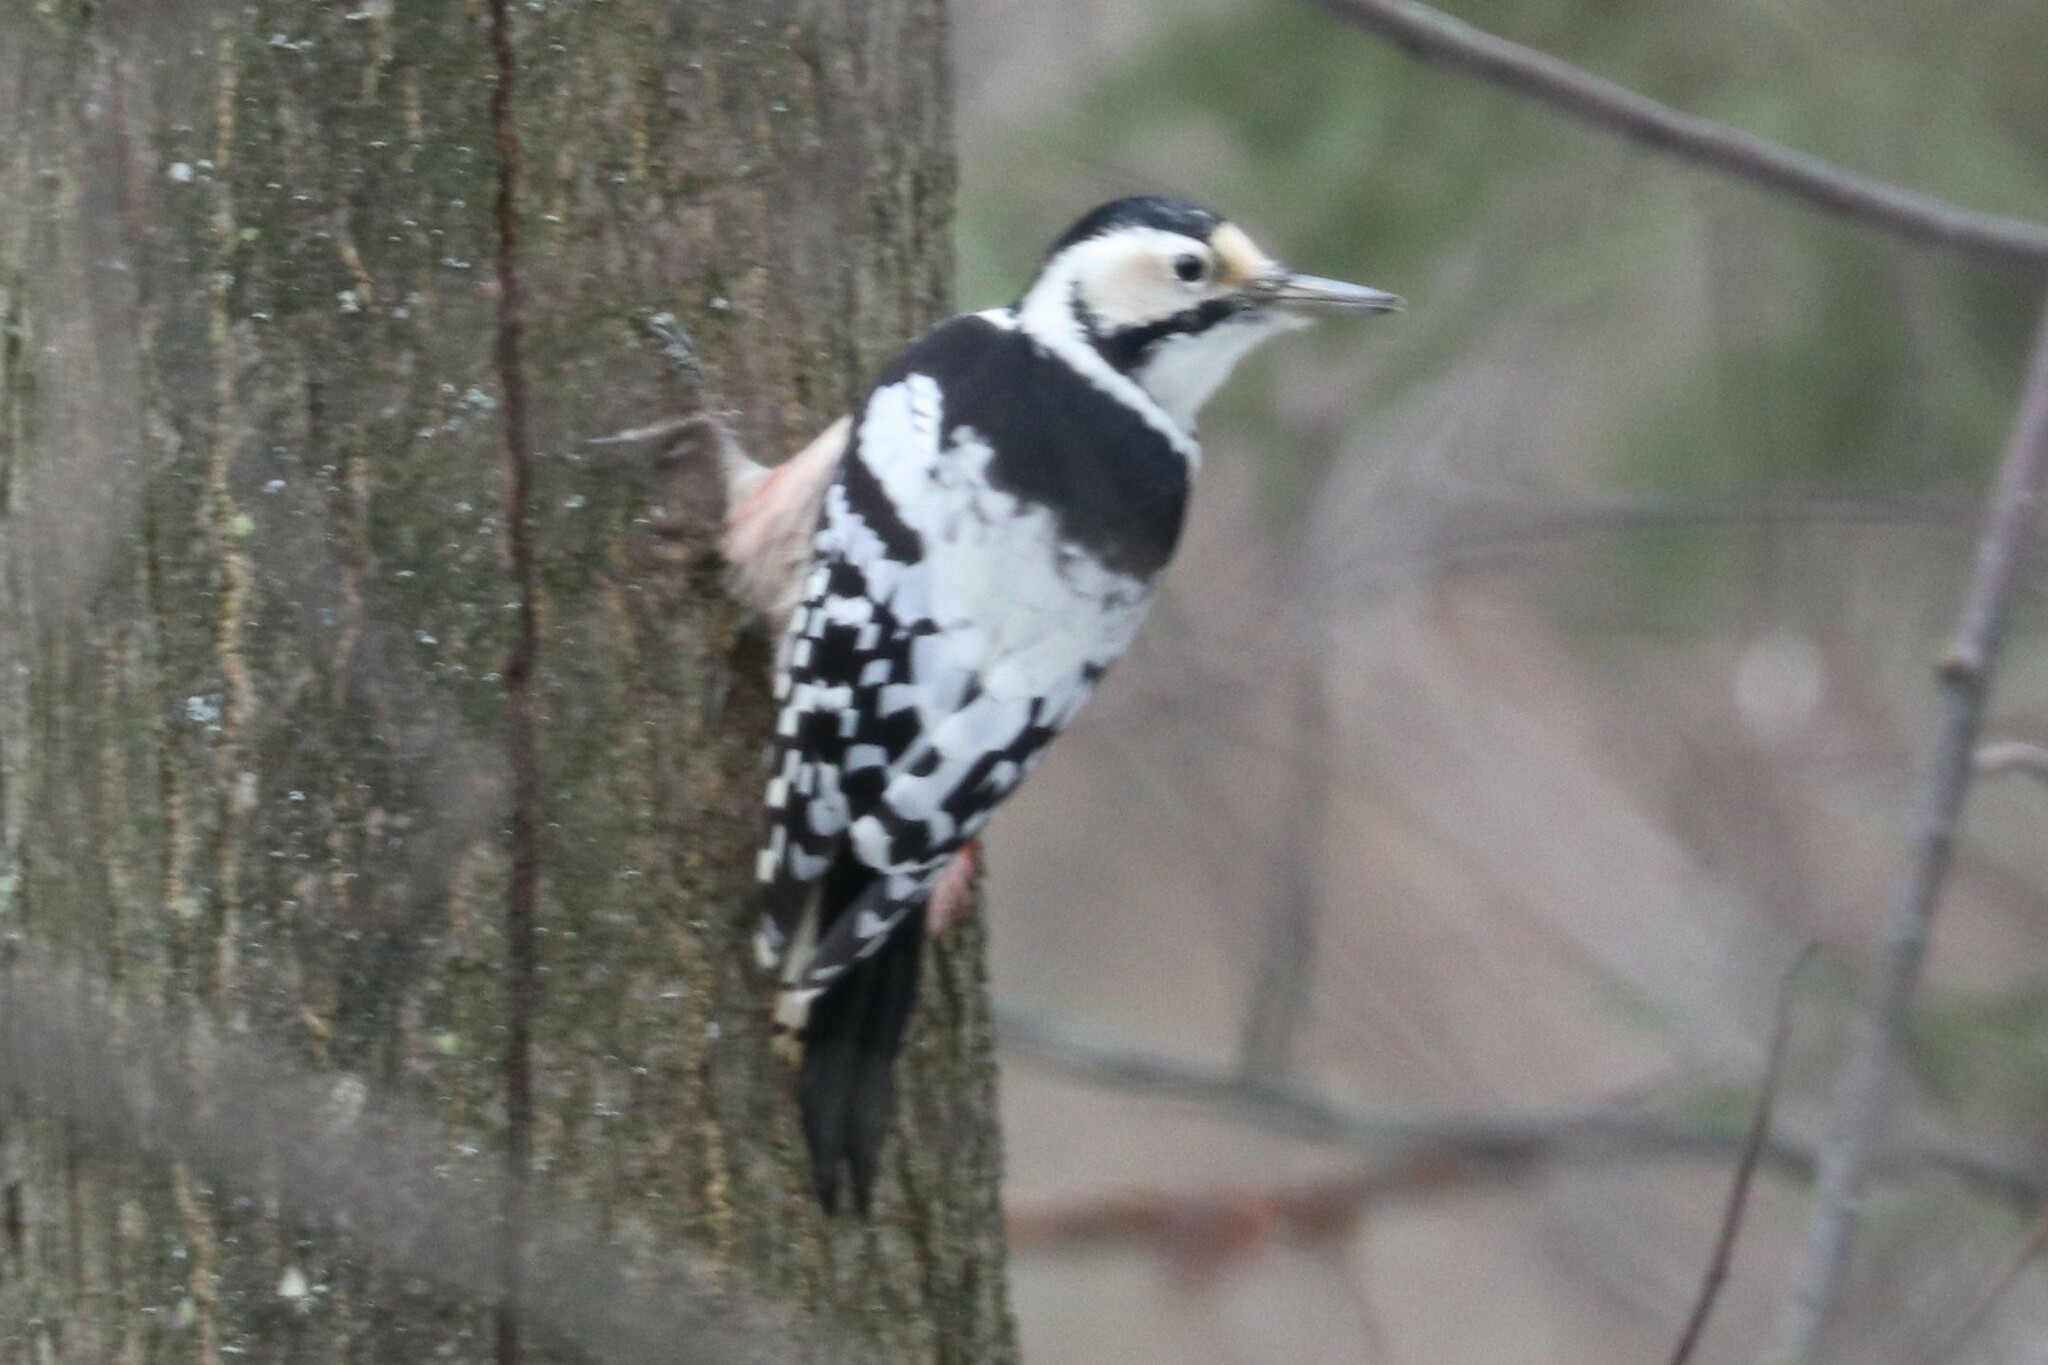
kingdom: Animalia
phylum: Chordata
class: Aves
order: Piciformes
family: Picidae
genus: Dendrocopos
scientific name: Dendrocopos leucotos
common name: White-backed woodpecker
